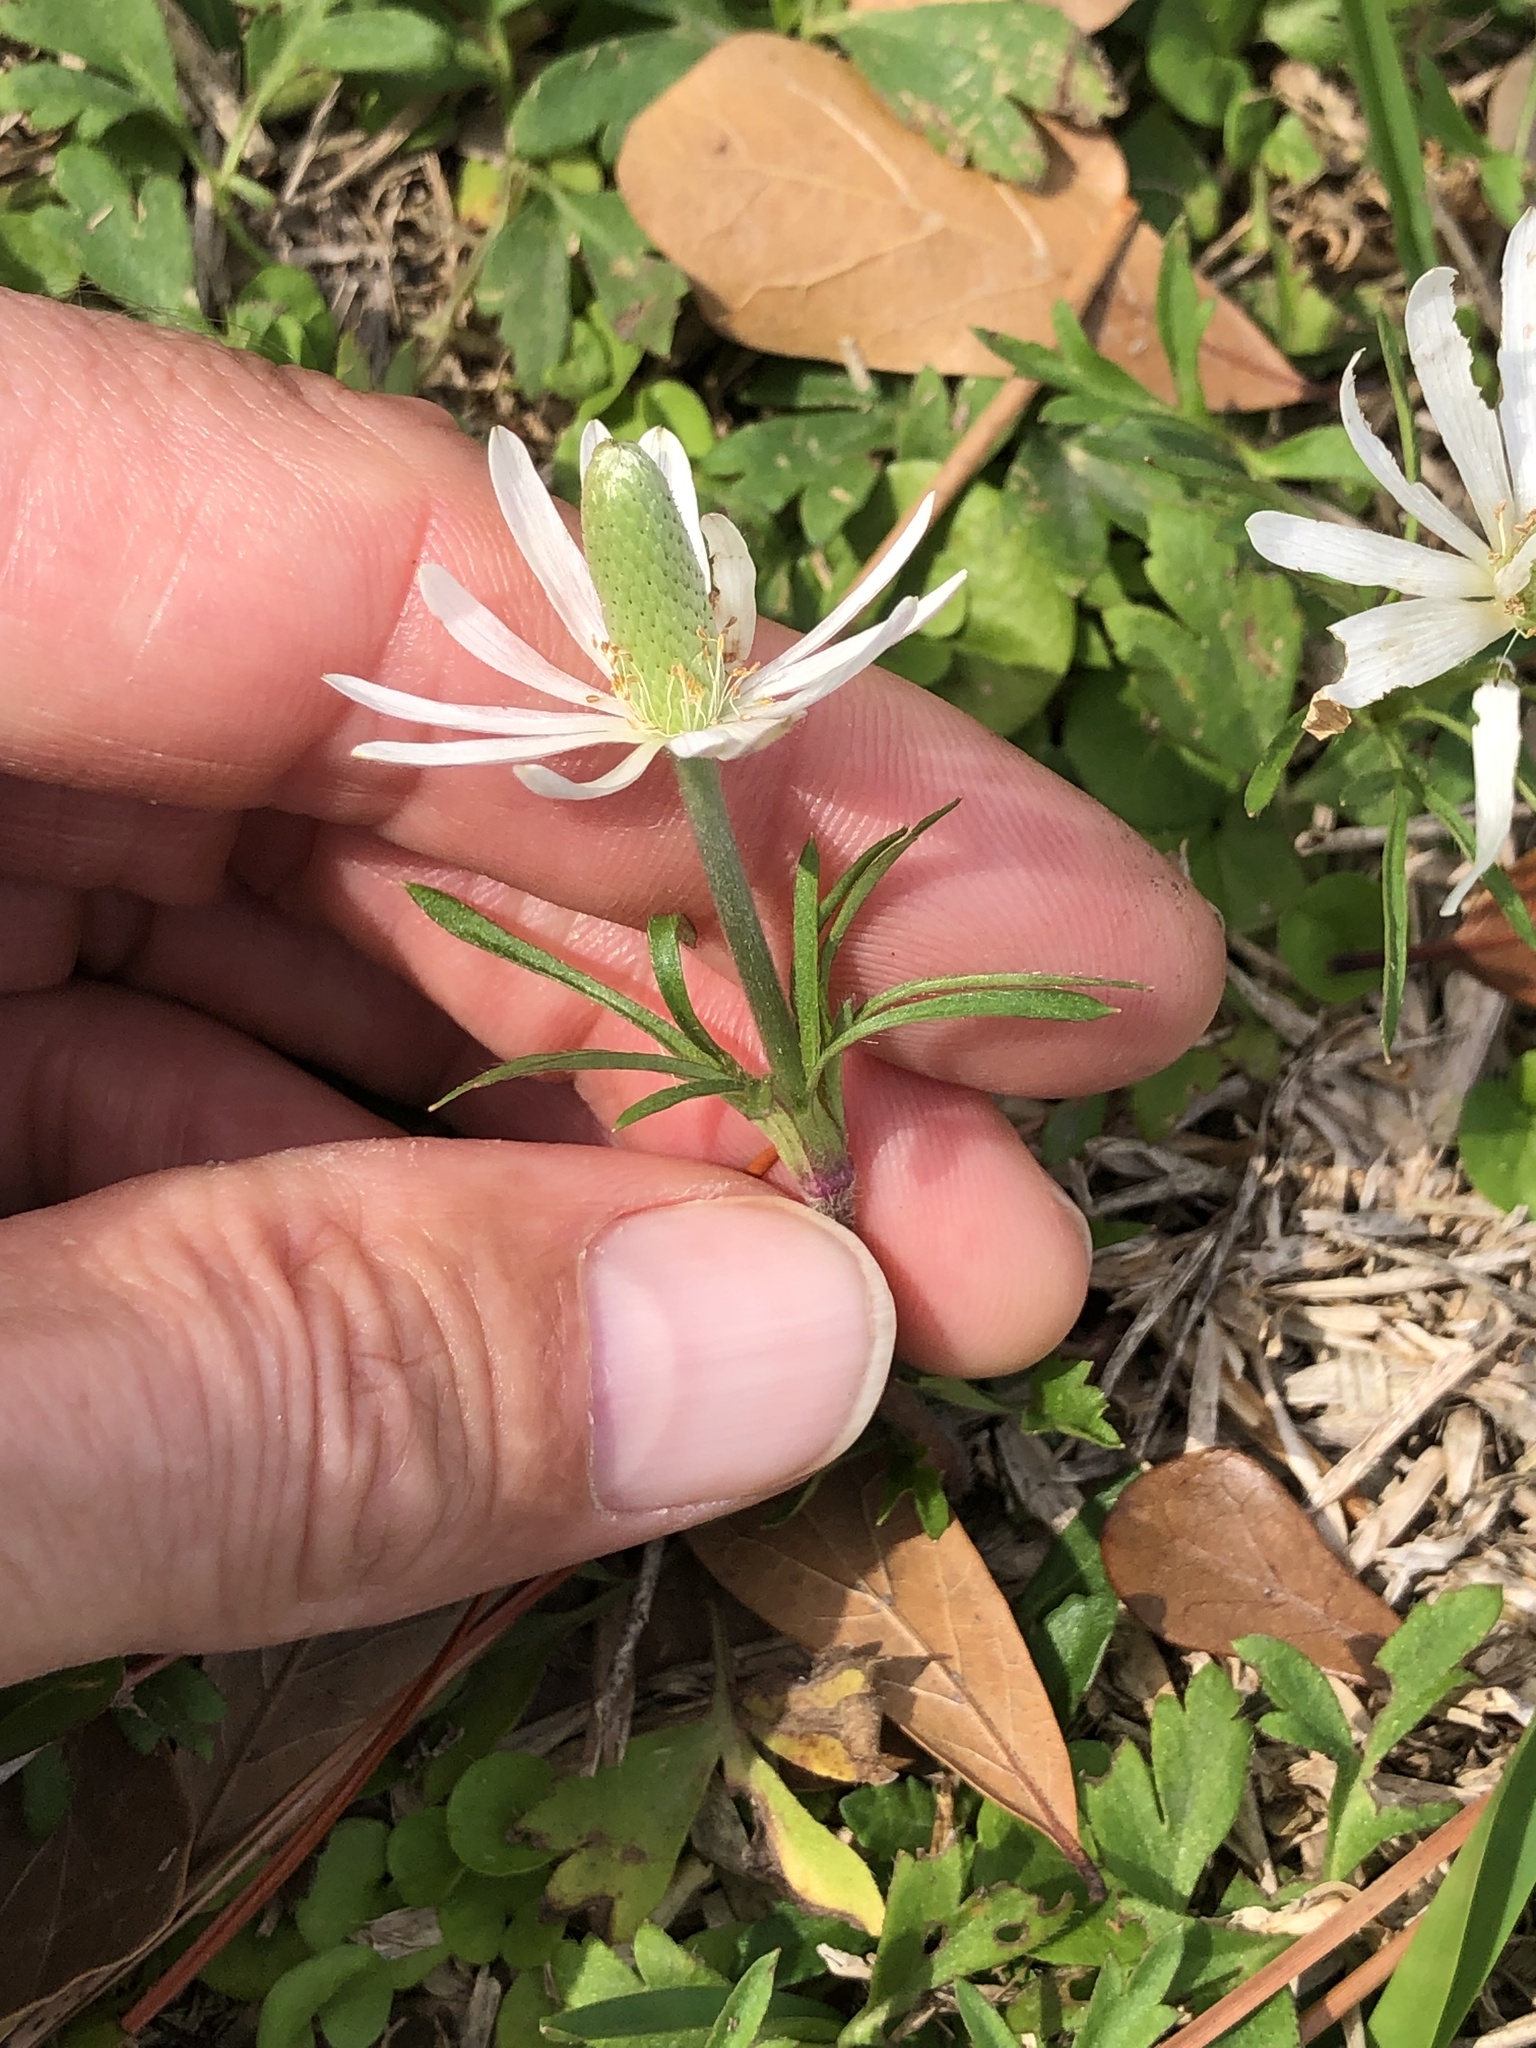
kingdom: Plantae
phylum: Tracheophyta
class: Magnoliopsida
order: Ranunculales
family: Ranunculaceae
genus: Anemone
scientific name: Anemone berlandieri
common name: Ten-petal anemone
